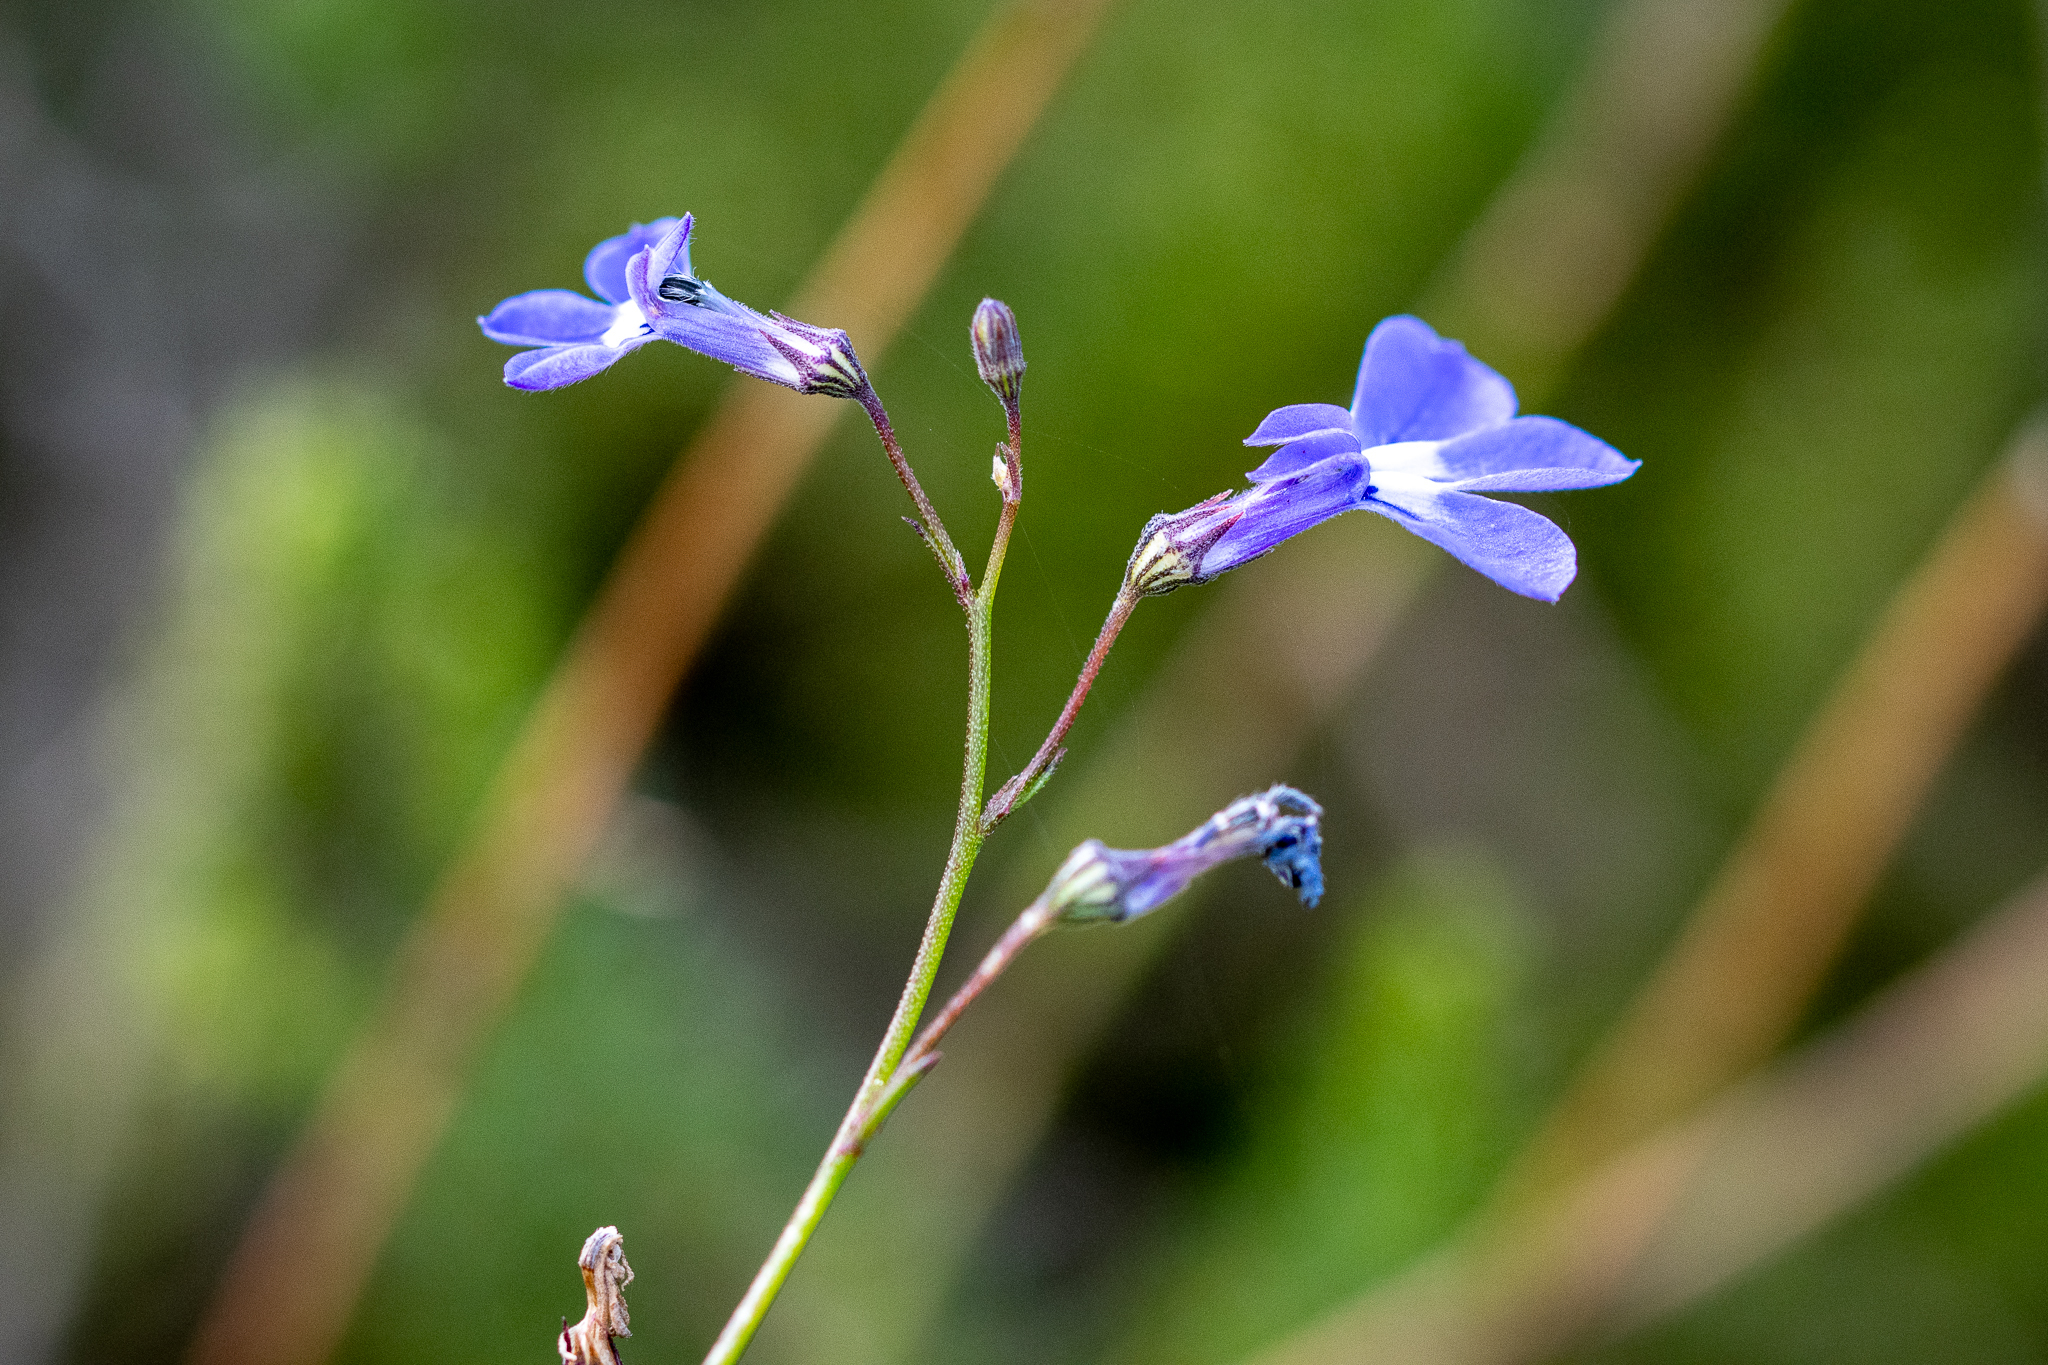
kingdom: Plantae
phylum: Tracheophyta
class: Magnoliopsida
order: Asterales
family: Campanulaceae
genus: Lobelia
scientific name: Lobelia setacea
